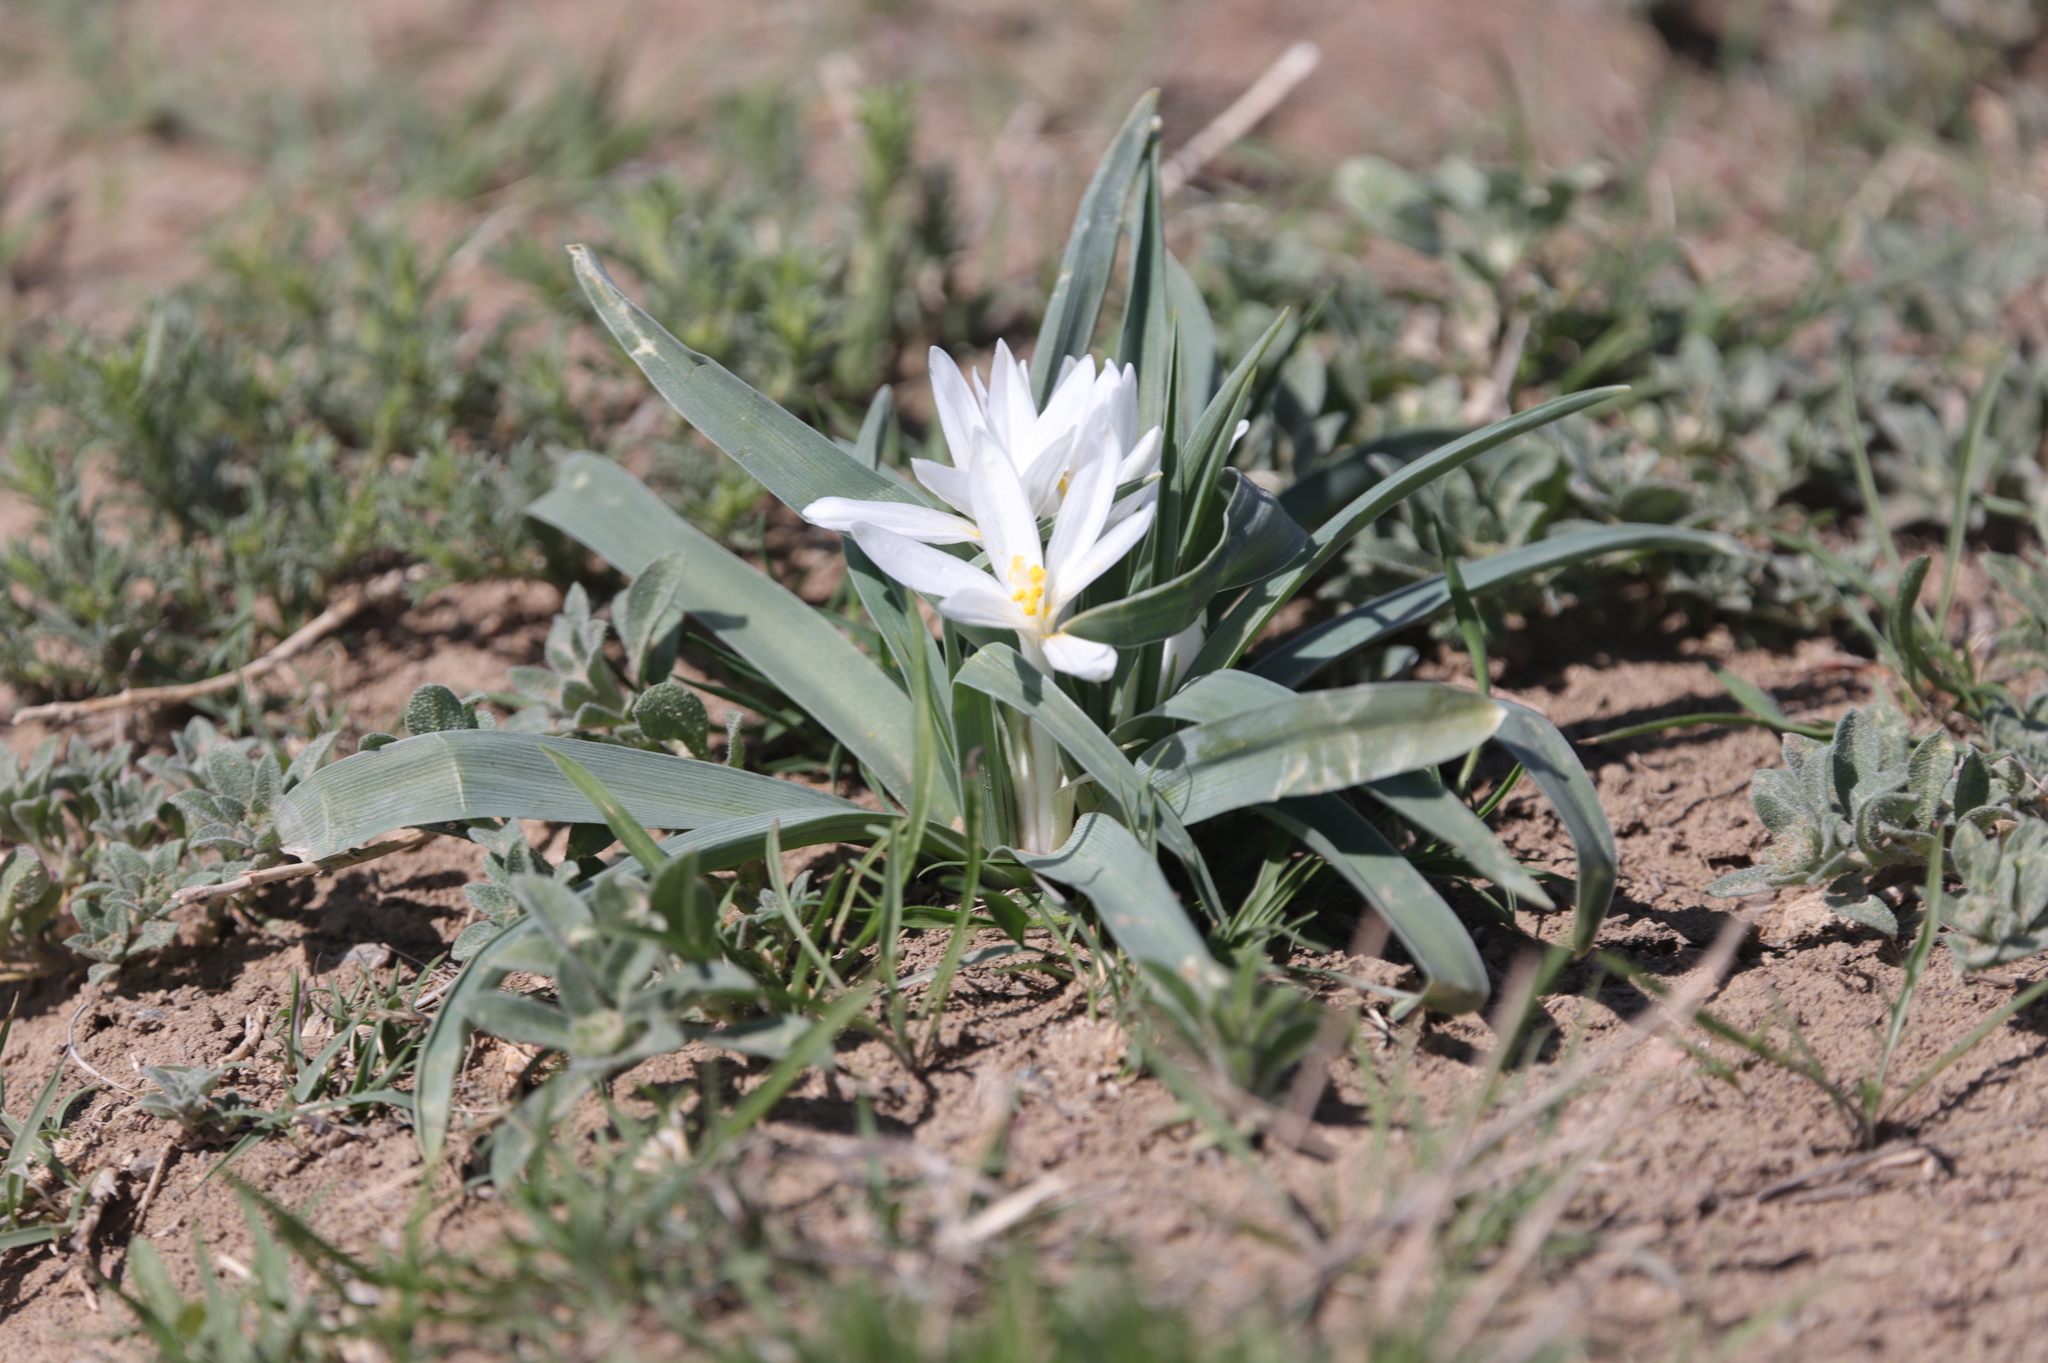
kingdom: Plantae
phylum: Tracheophyta
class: Liliopsida
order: Asparagales
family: Asparagaceae
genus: Leucocrinum
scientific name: Leucocrinum montanum
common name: Mountain-lily
